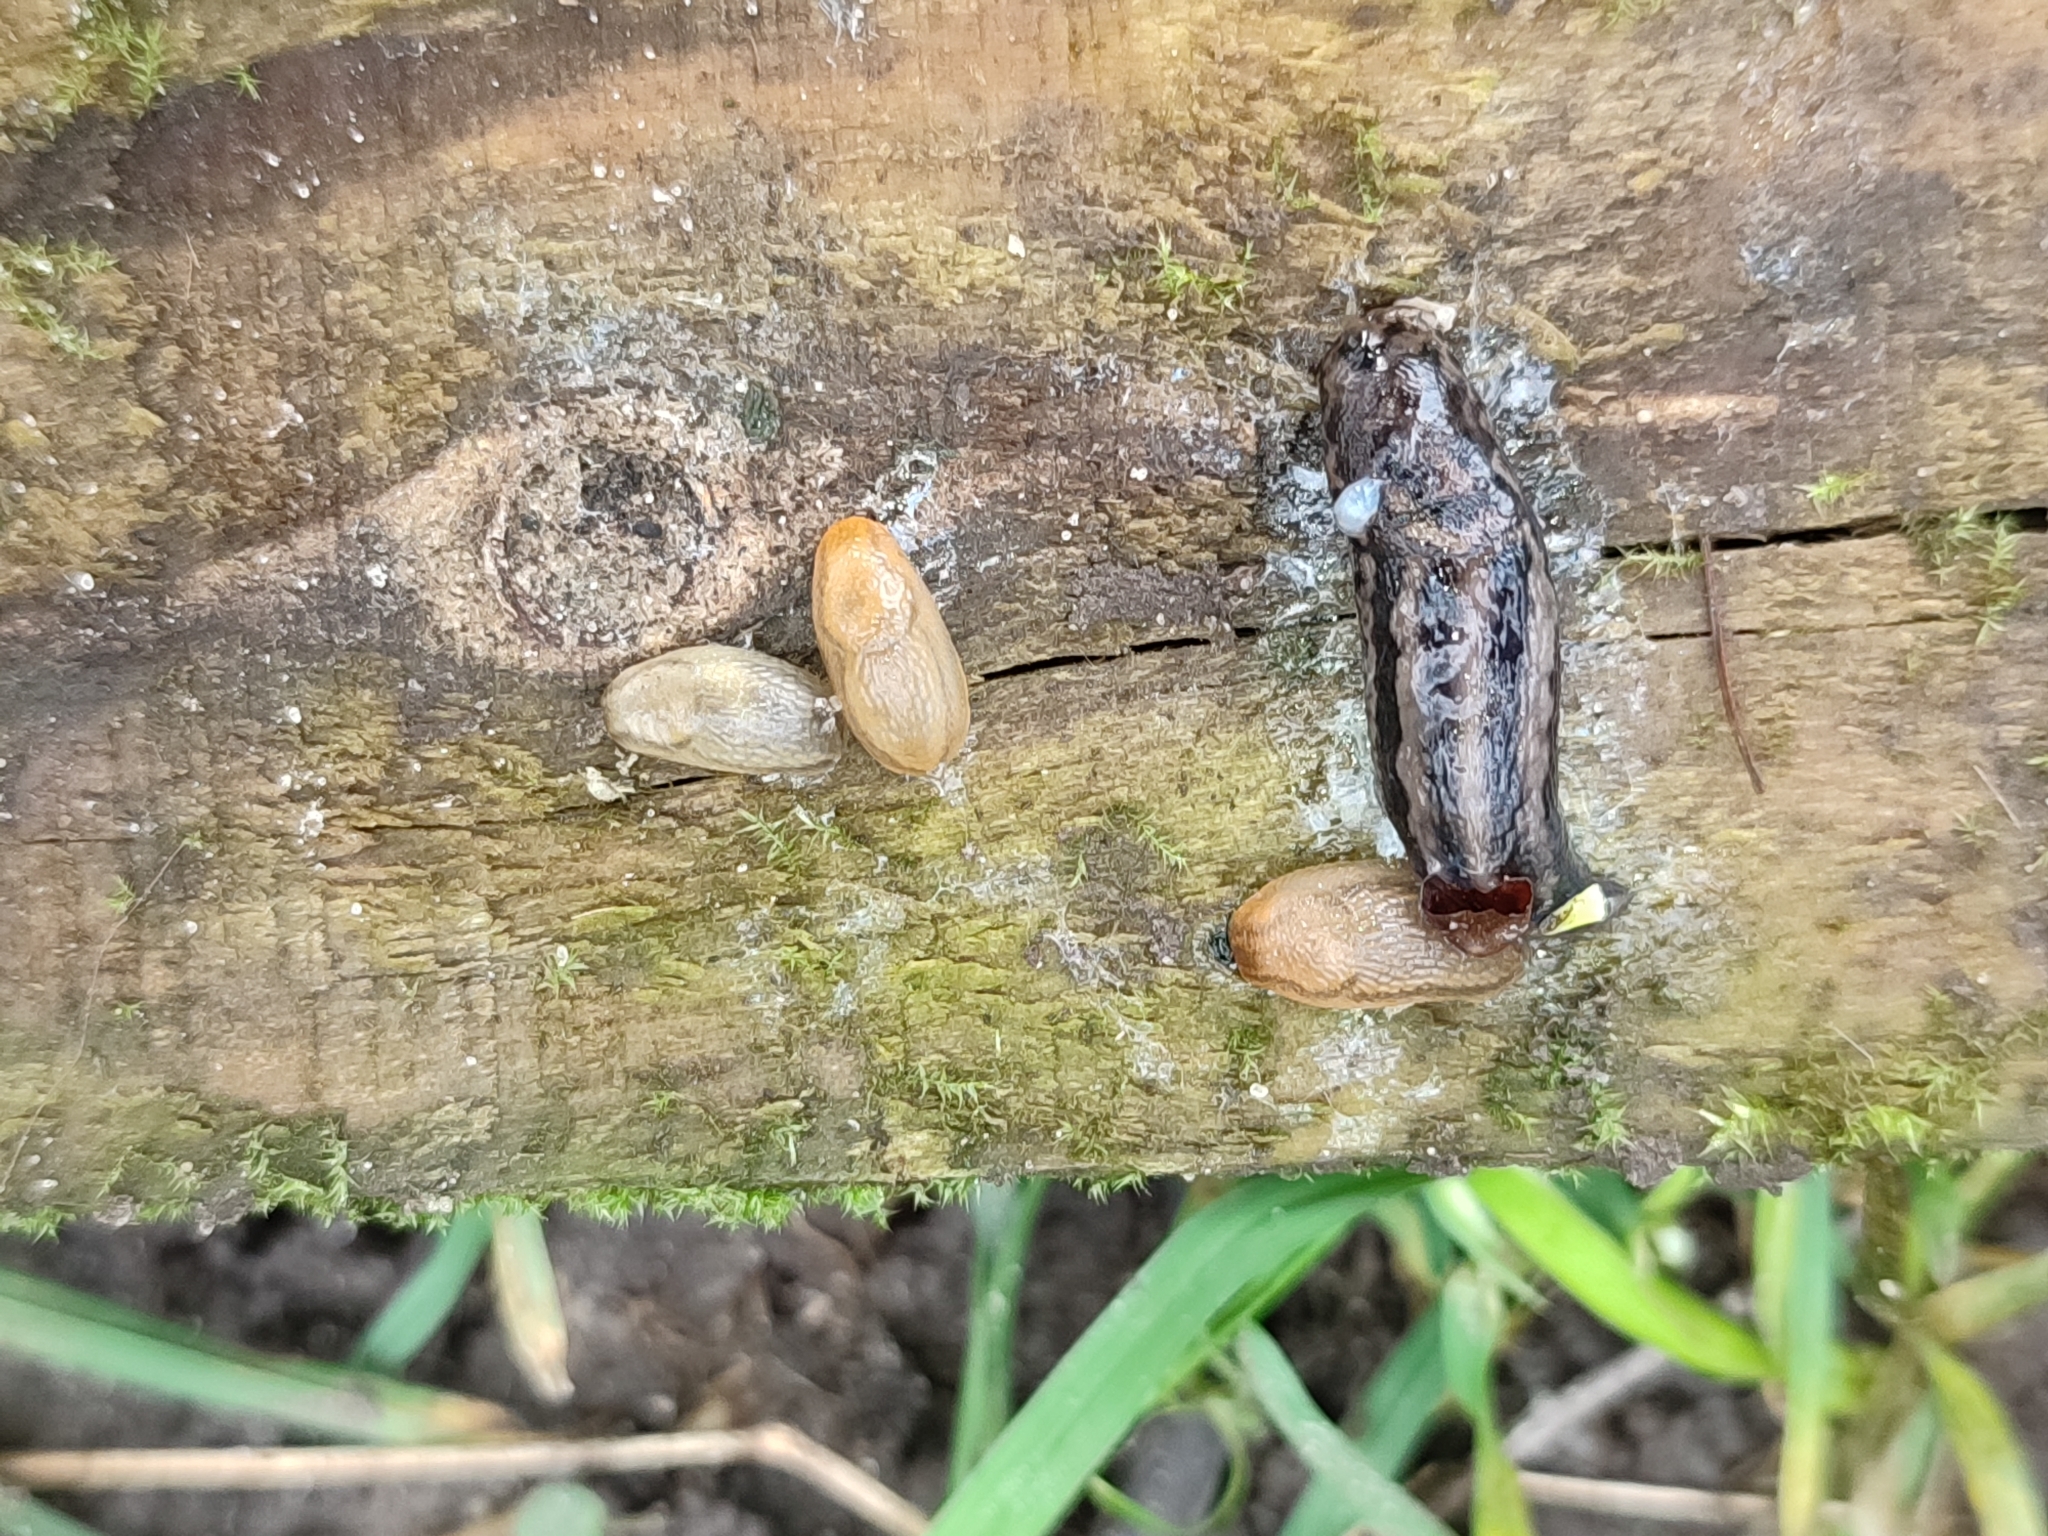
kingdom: Animalia
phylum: Mollusca
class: Gastropoda
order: Stylommatophora
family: Arionidae
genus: Arion
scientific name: Arion vulgaris
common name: Lusitanian slug
